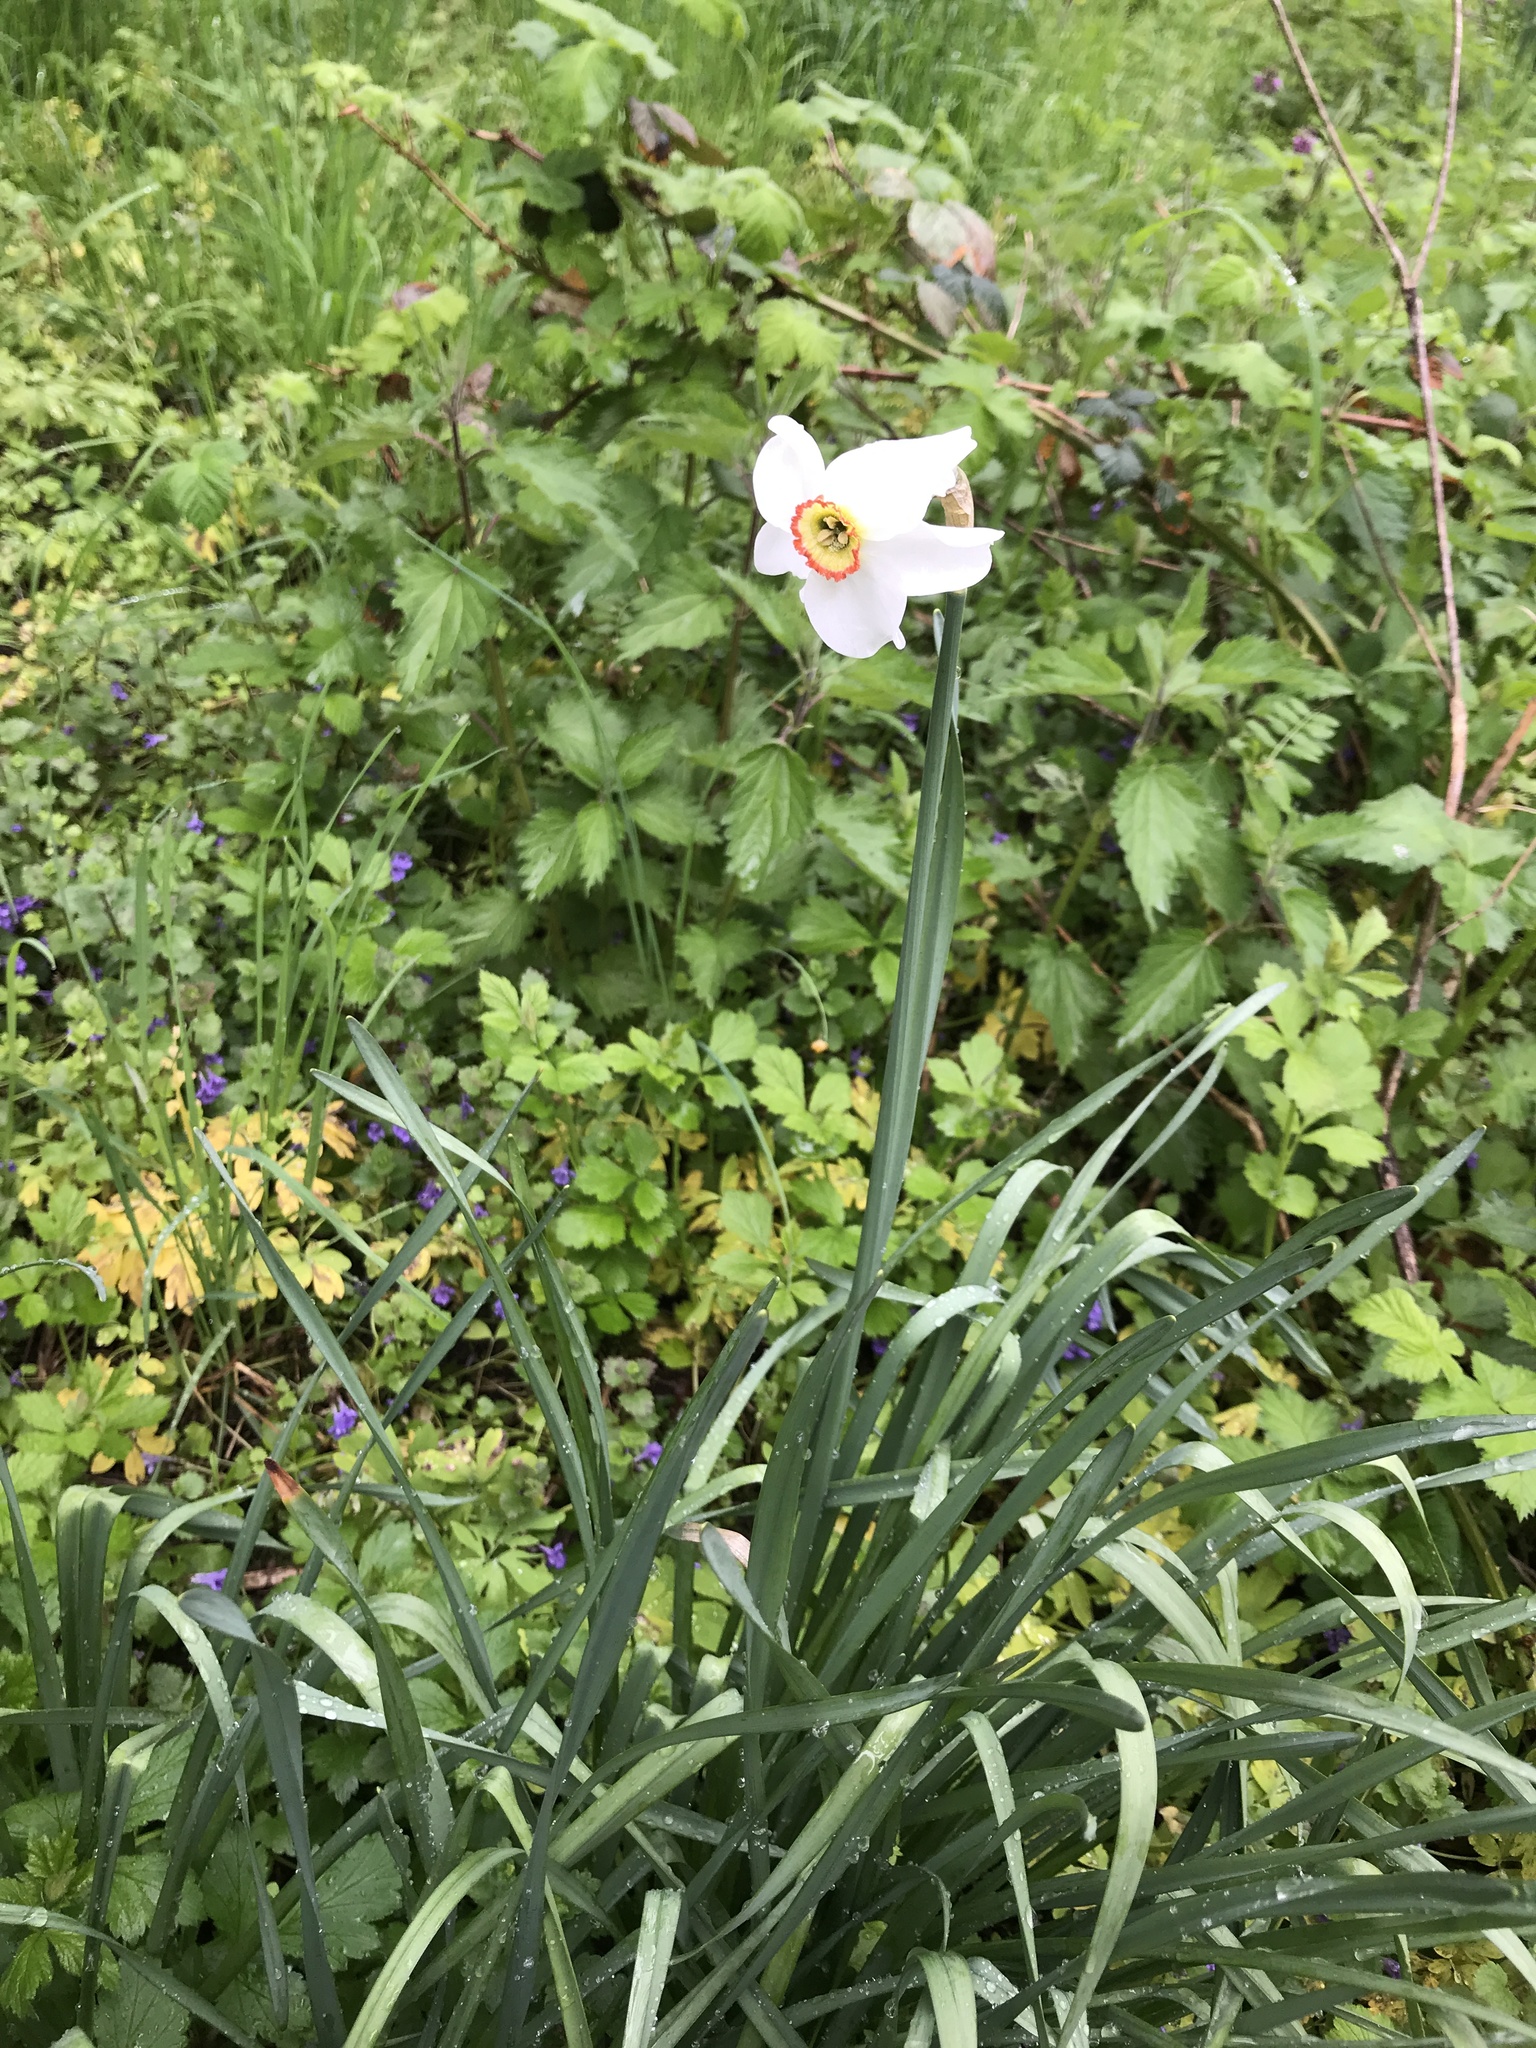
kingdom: Plantae
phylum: Tracheophyta
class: Liliopsida
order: Asparagales
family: Amaryllidaceae
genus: Narcissus
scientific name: Narcissus poeticus
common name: Pheasant's-eye daffodil
